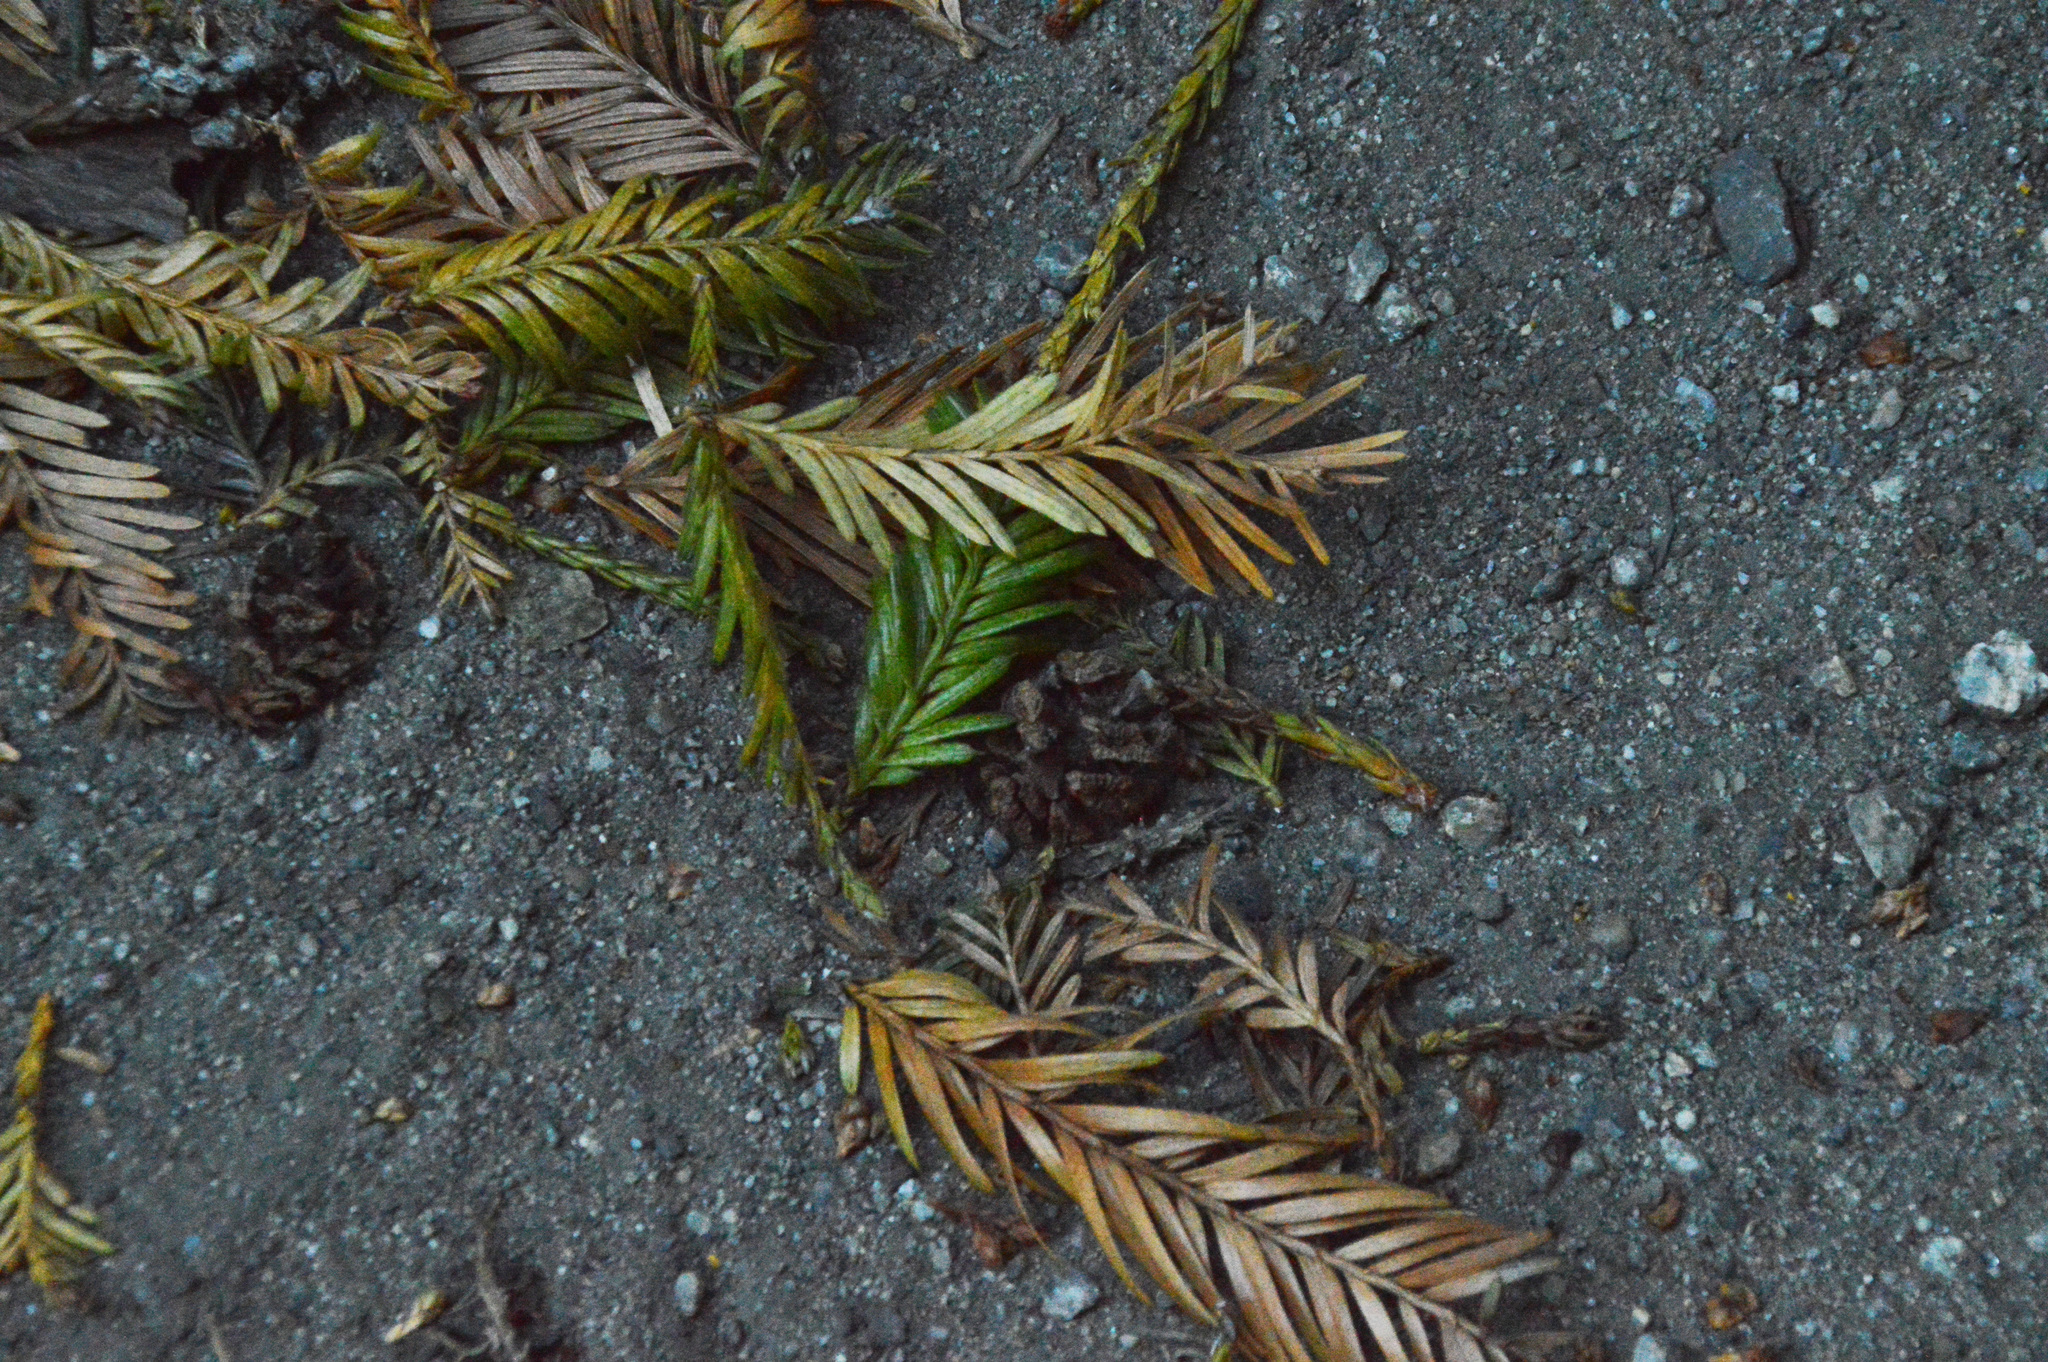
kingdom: Plantae
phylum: Tracheophyta
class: Pinopsida
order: Pinales
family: Cupressaceae
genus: Sequoia
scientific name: Sequoia sempervirens
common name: Coast redwood
